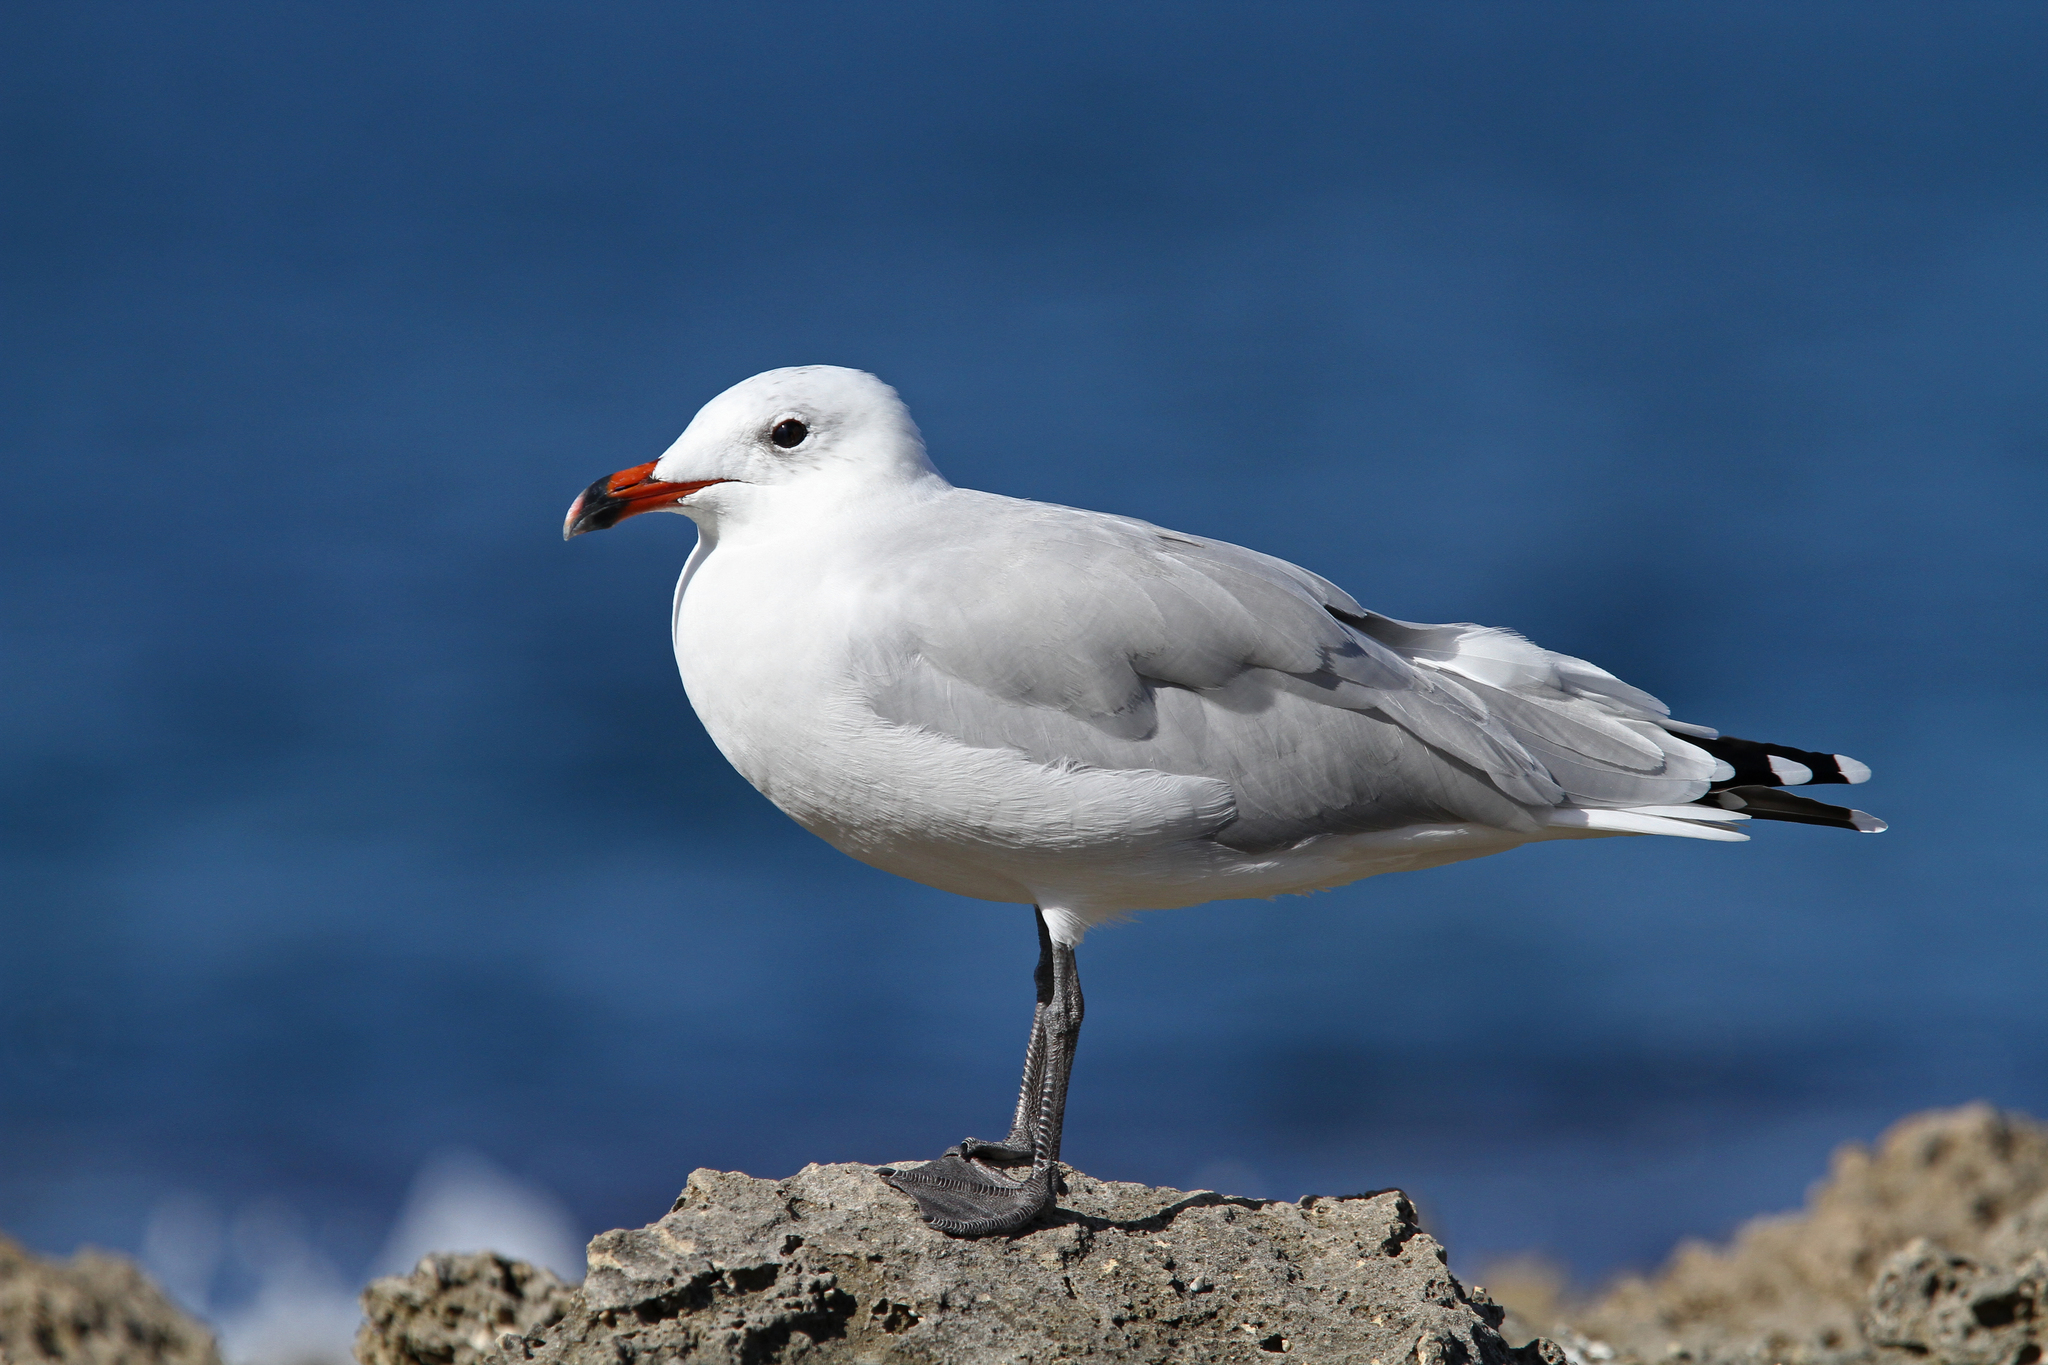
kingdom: Animalia
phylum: Chordata
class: Aves
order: Charadriiformes
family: Laridae
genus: Ichthyaetus
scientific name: Ichthyaetus audouinii
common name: Audouin's gull
